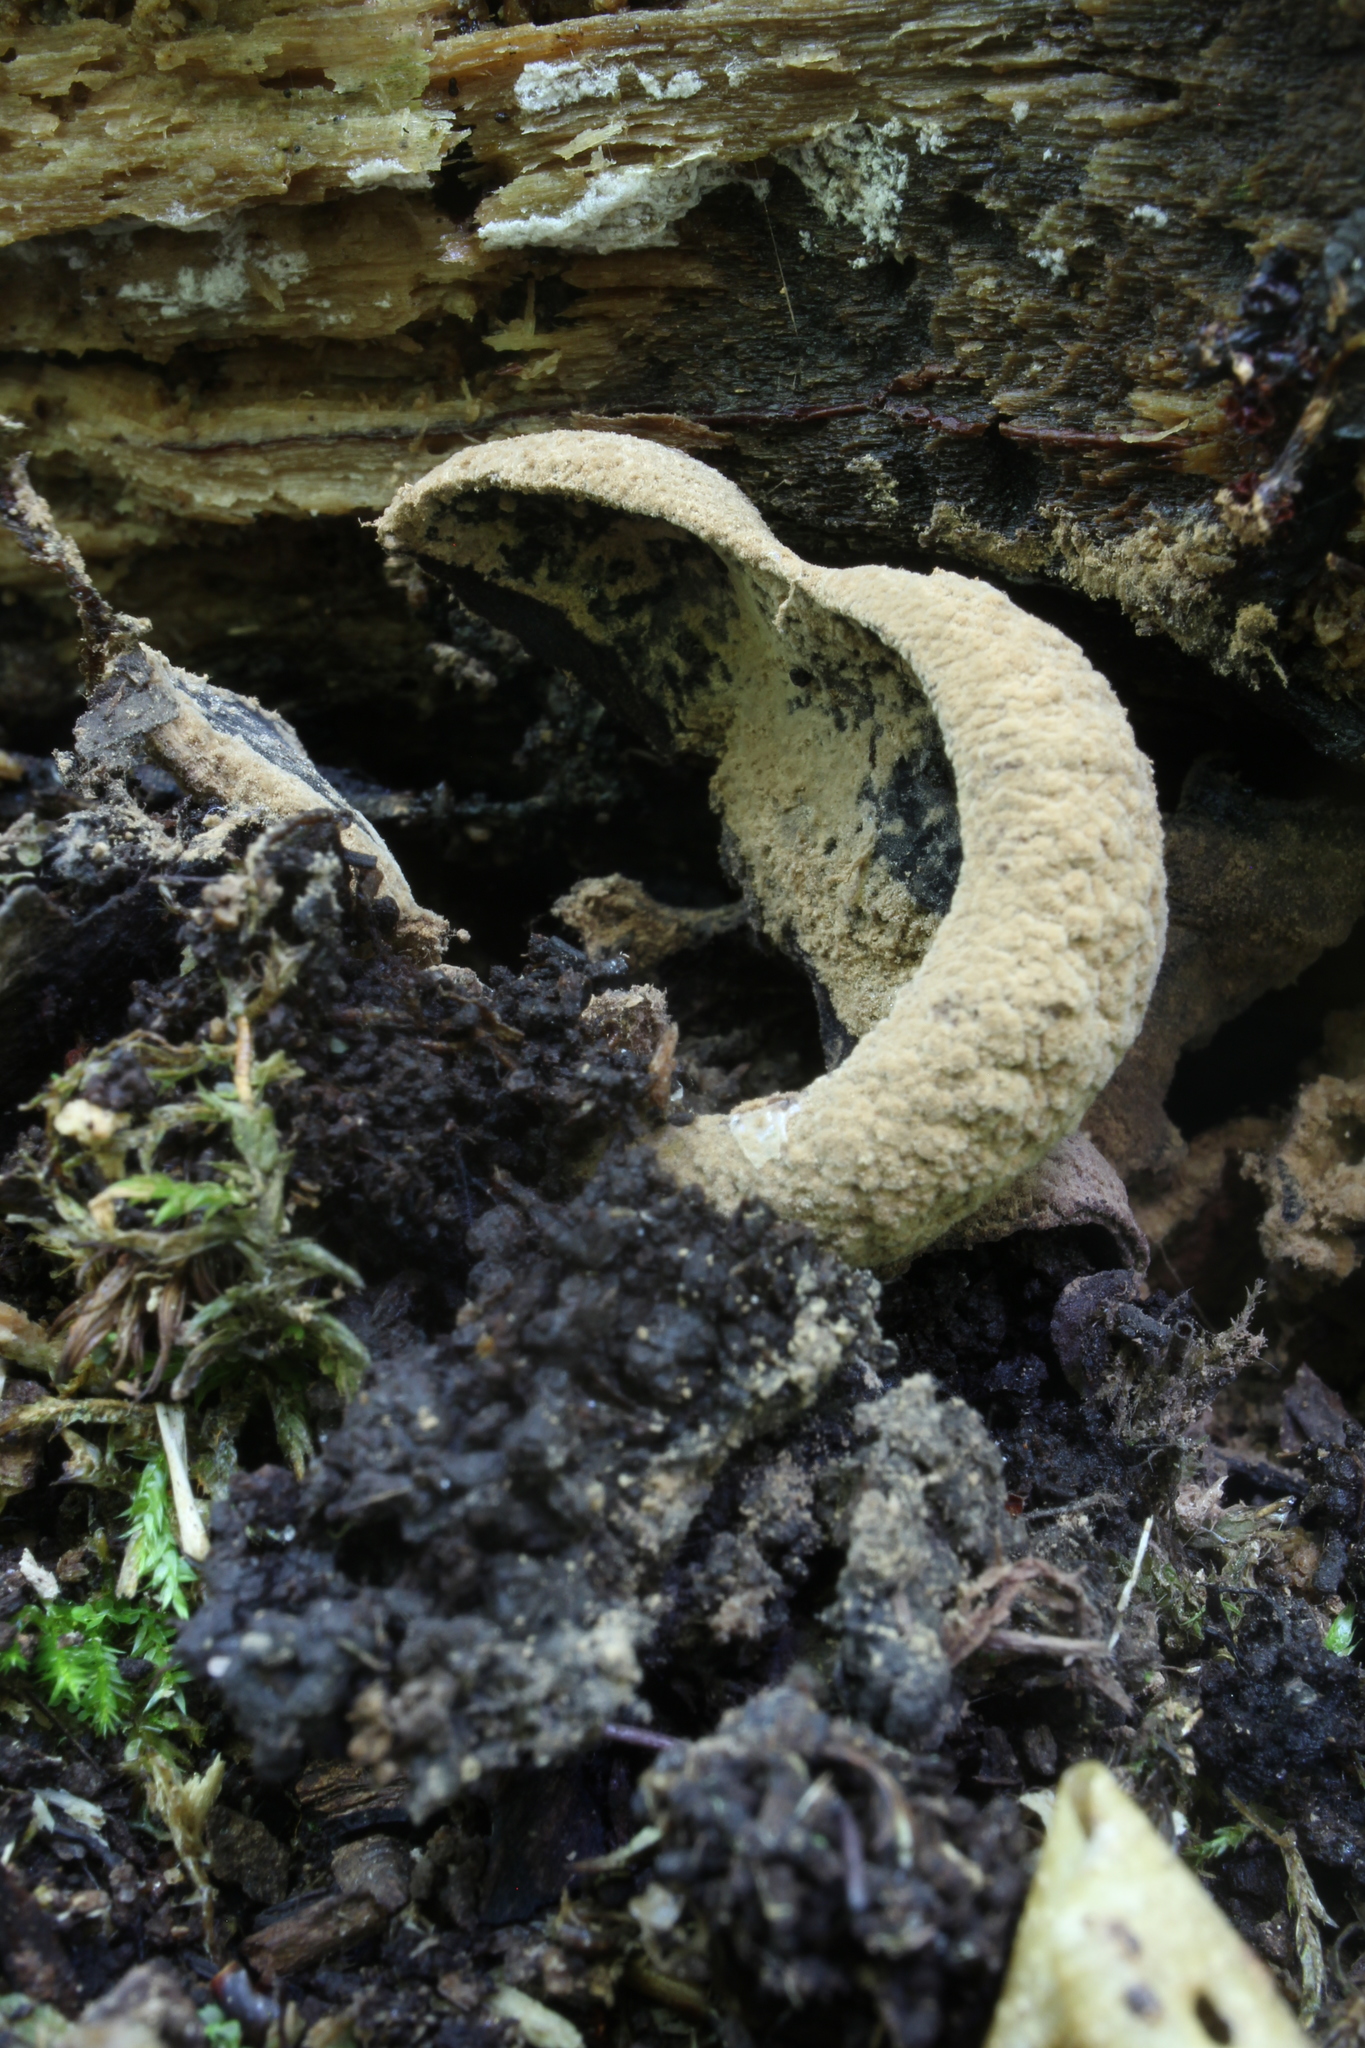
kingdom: Fungi
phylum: Ascomycota
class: Leotiomycetes
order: Helotiales
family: Cordieritidaceae
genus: Diplocarpa
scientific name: Diplocarpa irregularis
